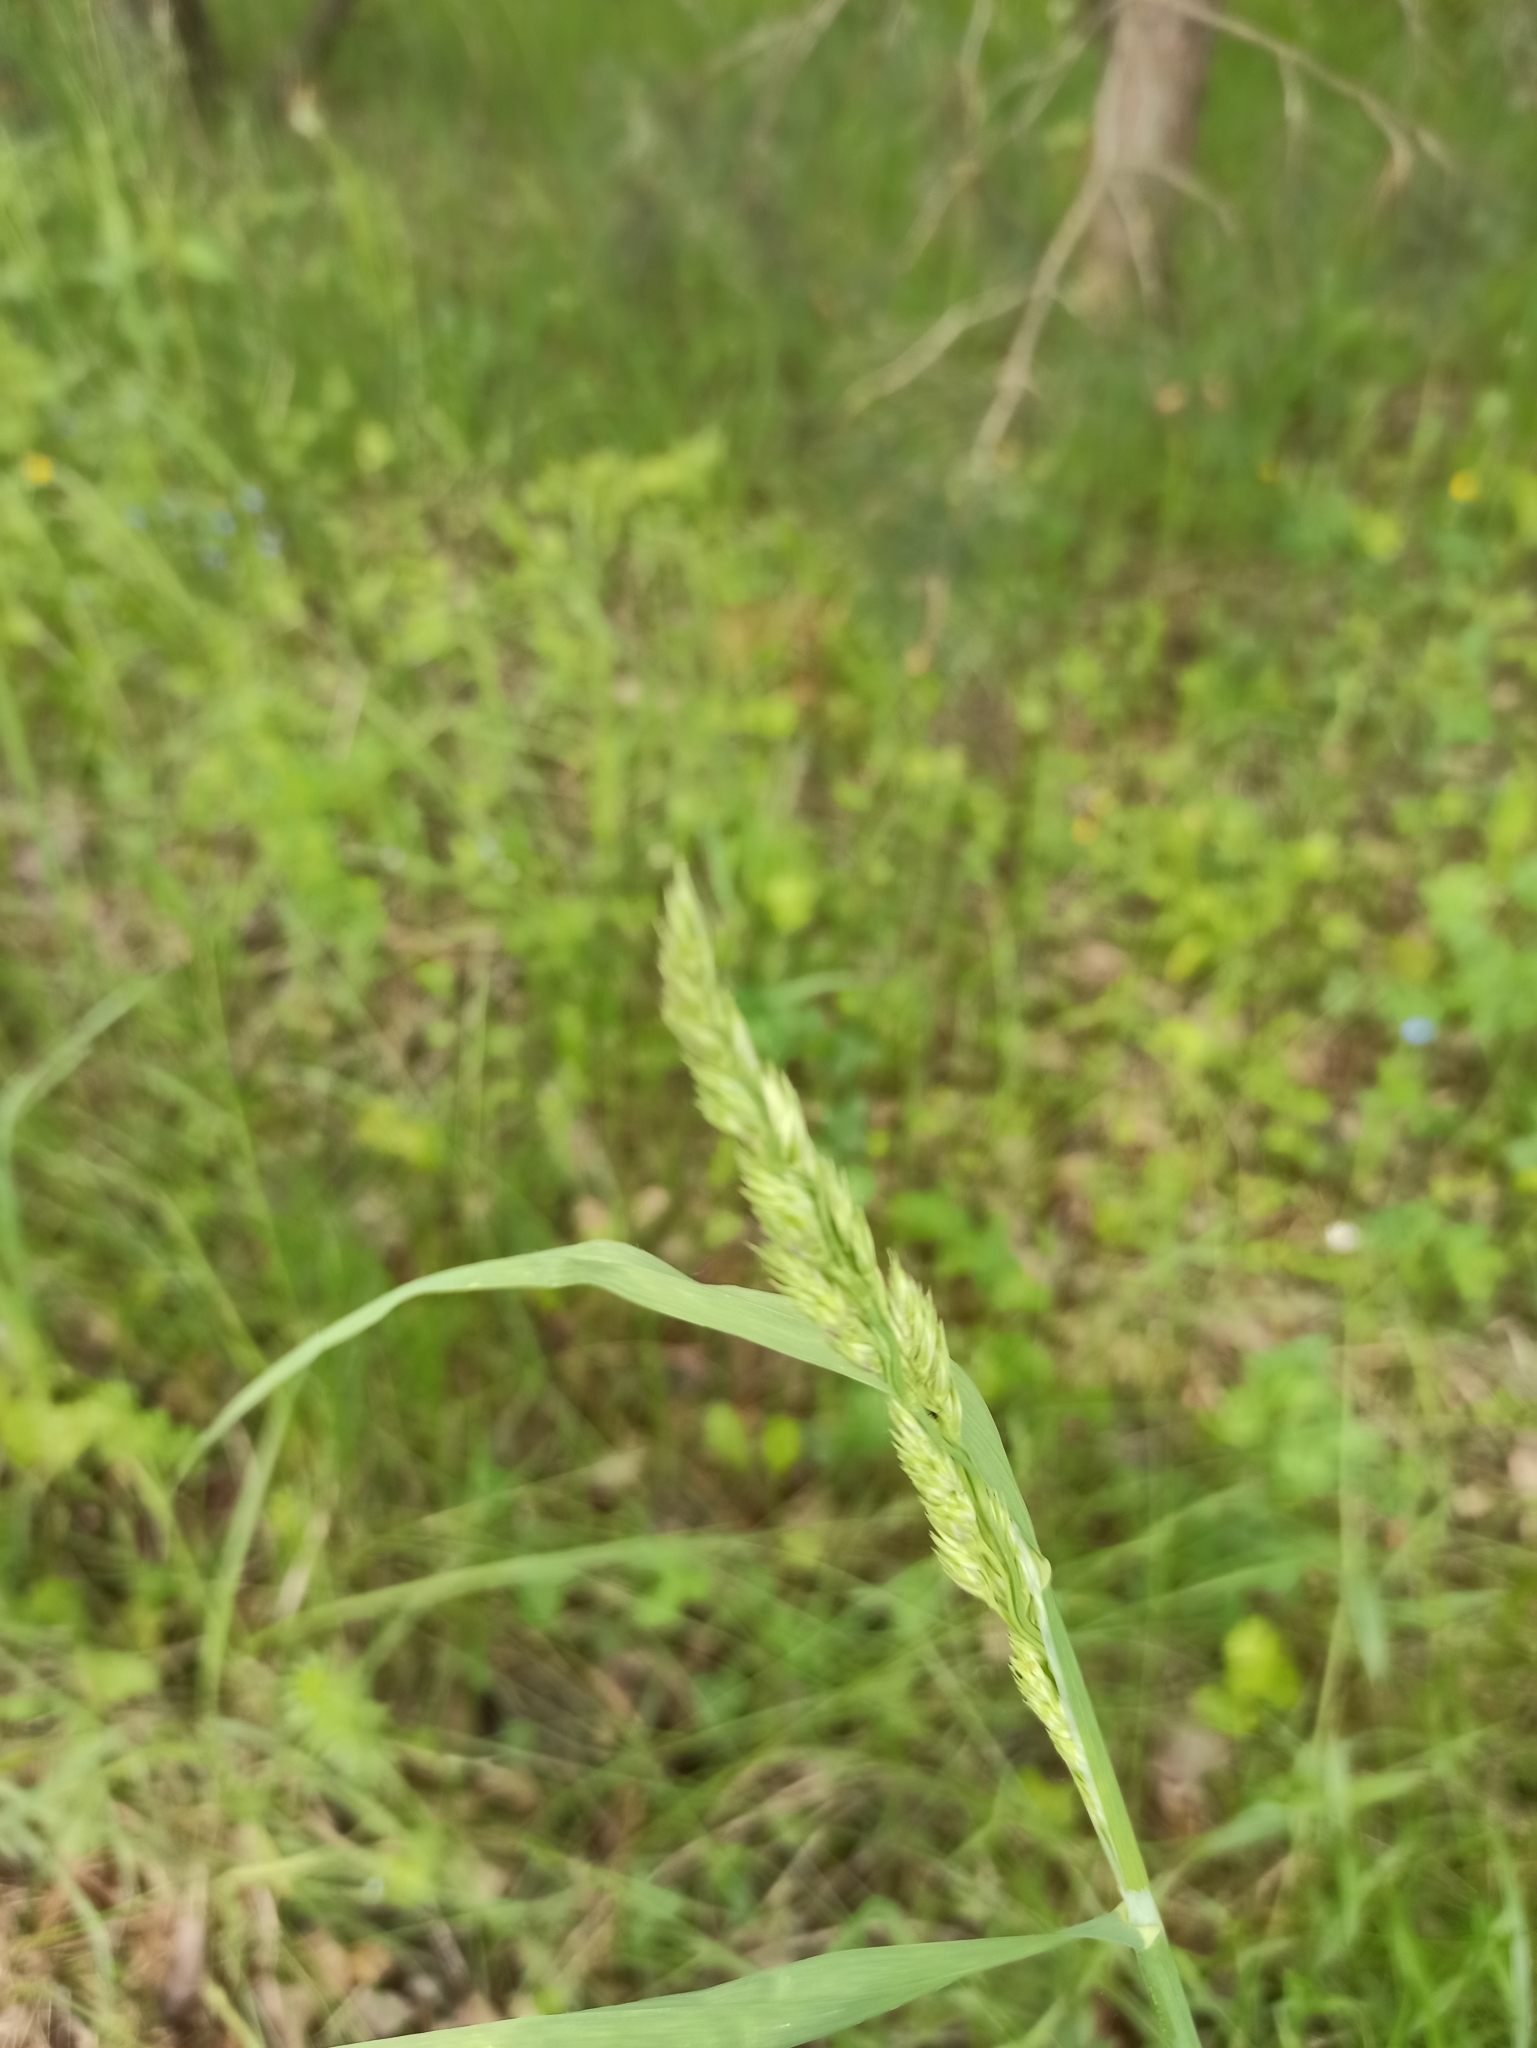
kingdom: Plantae
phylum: Tracheophyta
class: Liliopsida
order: Poales
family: Poaceae
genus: Dactylis
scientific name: Dactylis glomerata
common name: Orchardgrass
